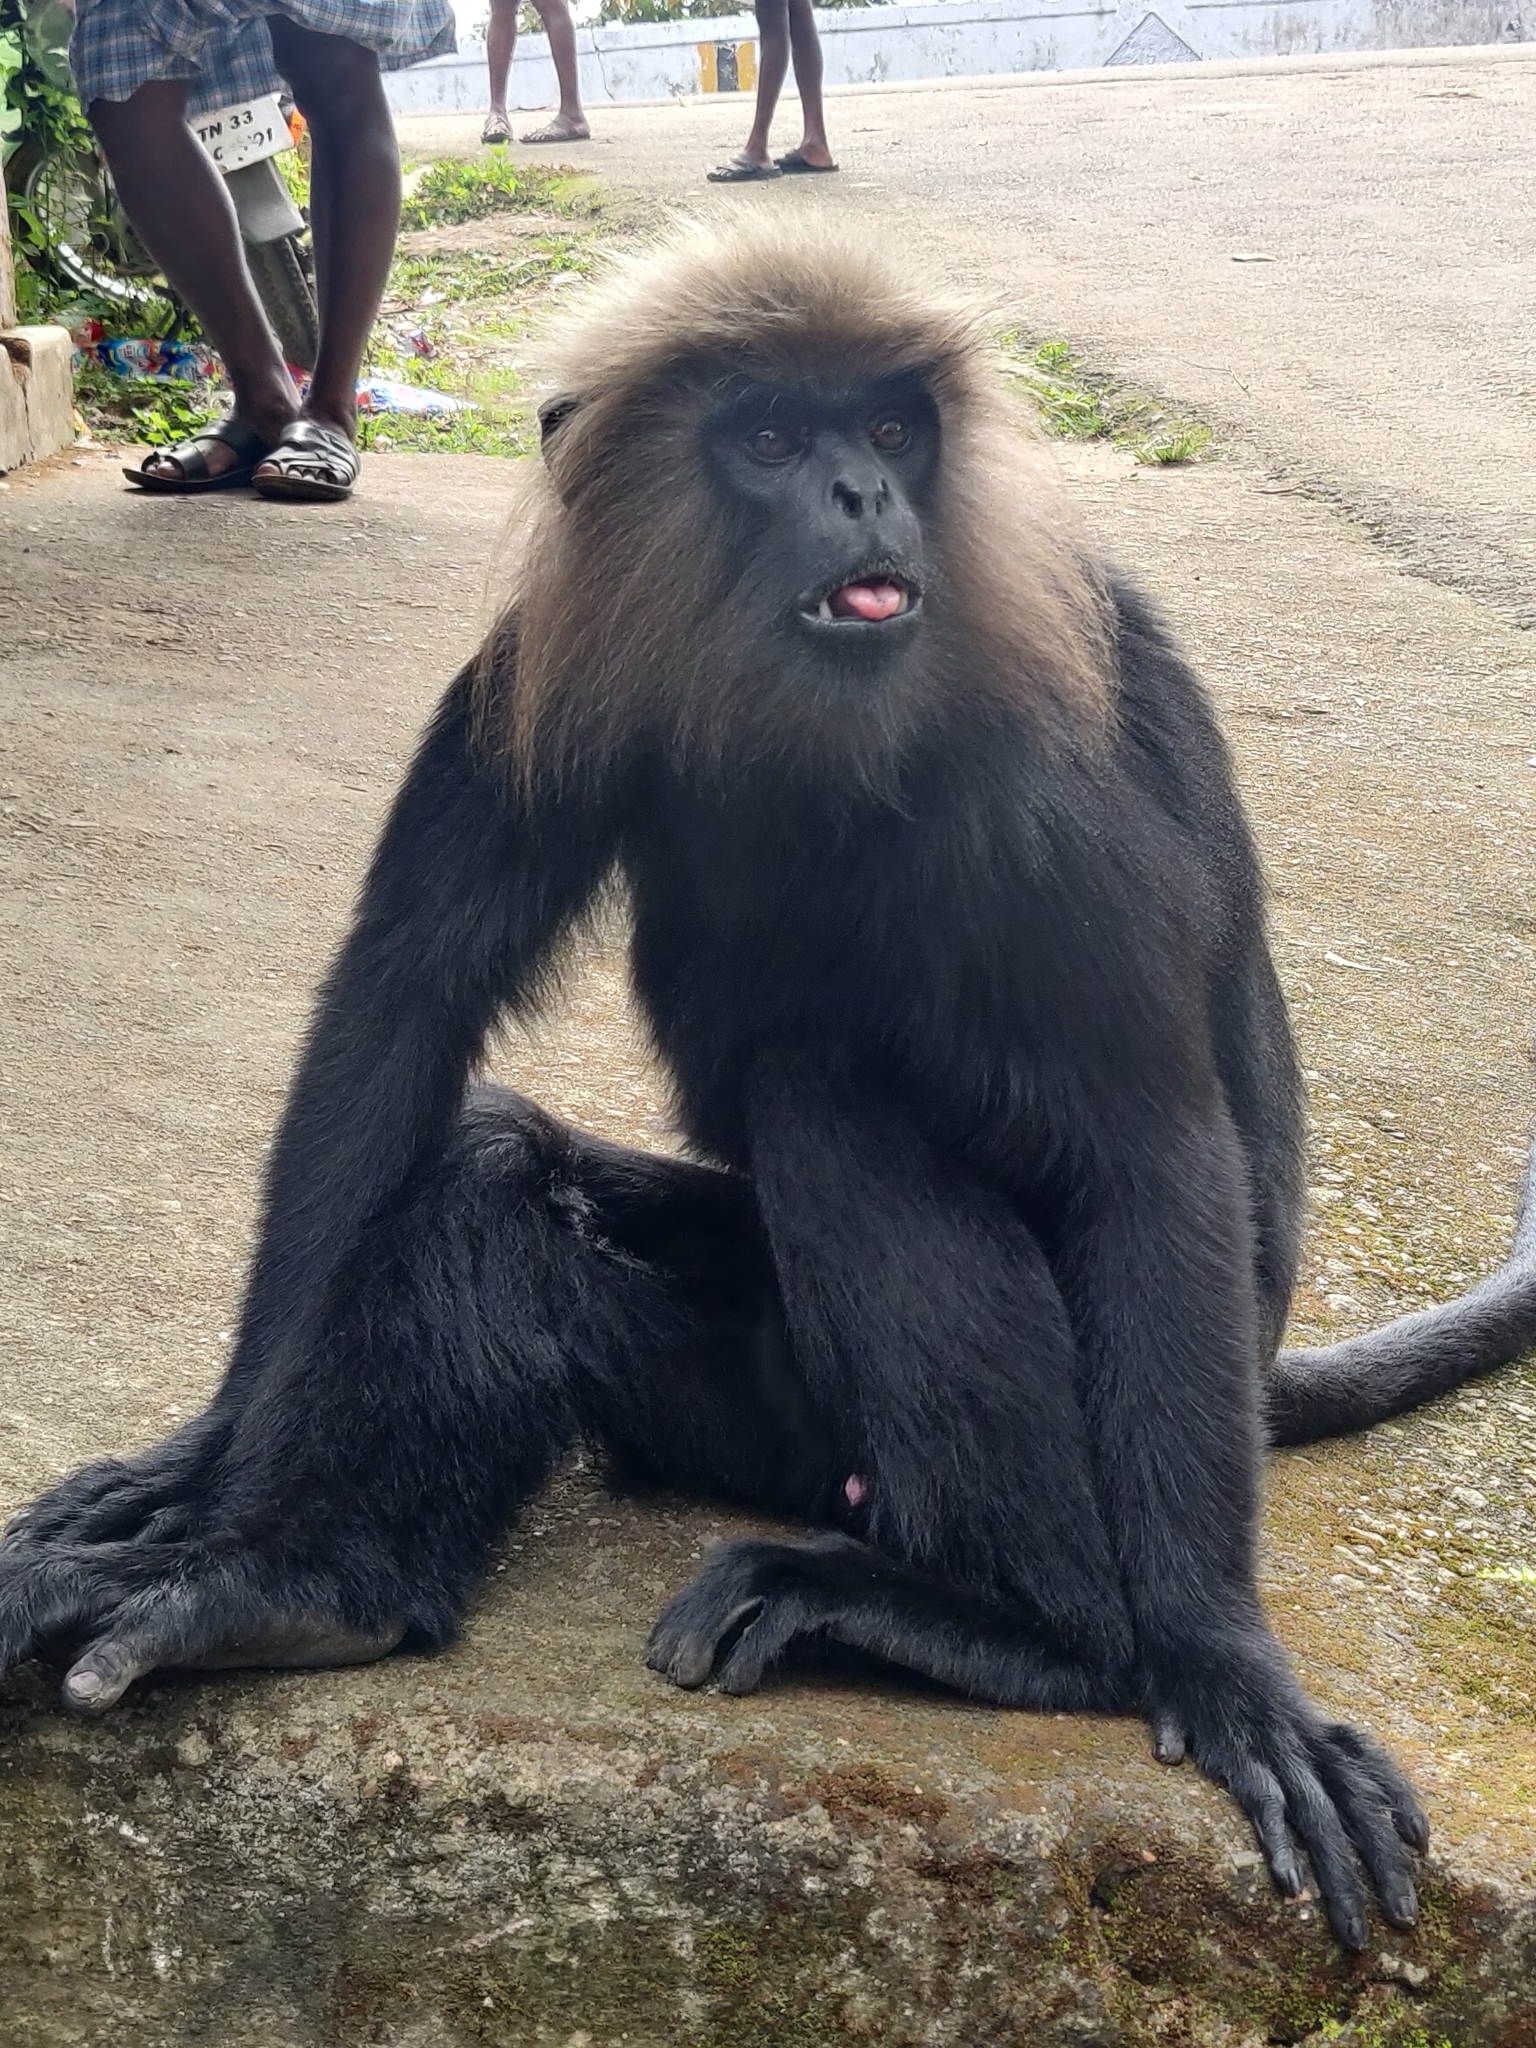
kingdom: Animalia
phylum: Chordata
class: Mammalia
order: Primates
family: Cercopithecidae
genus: Semnopithecus
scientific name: Semnopithecus johnii
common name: Nilgiri langur
